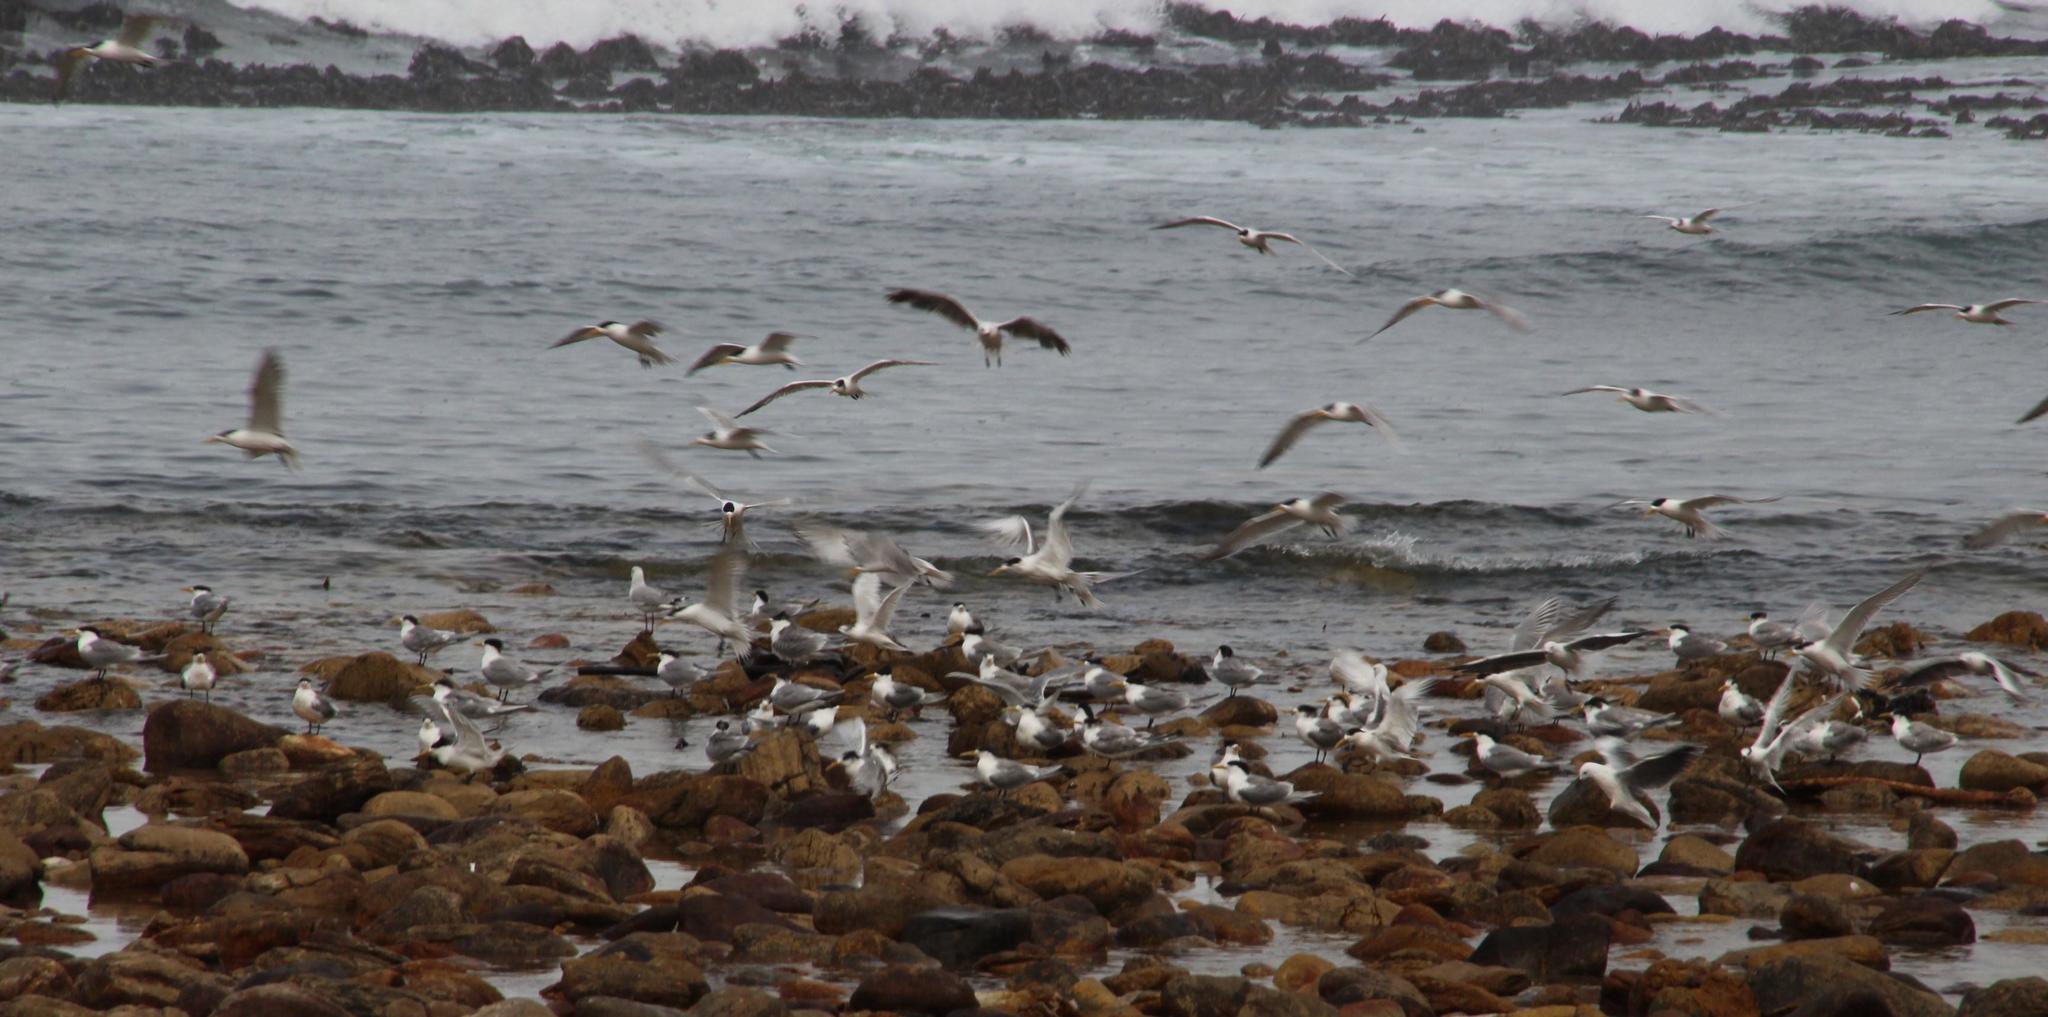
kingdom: Animalia
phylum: Chordata
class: Aves
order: Charadriiformes
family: Laridae
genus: Thalasseus
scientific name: Thalasseus bergii
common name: Greater crested tern
